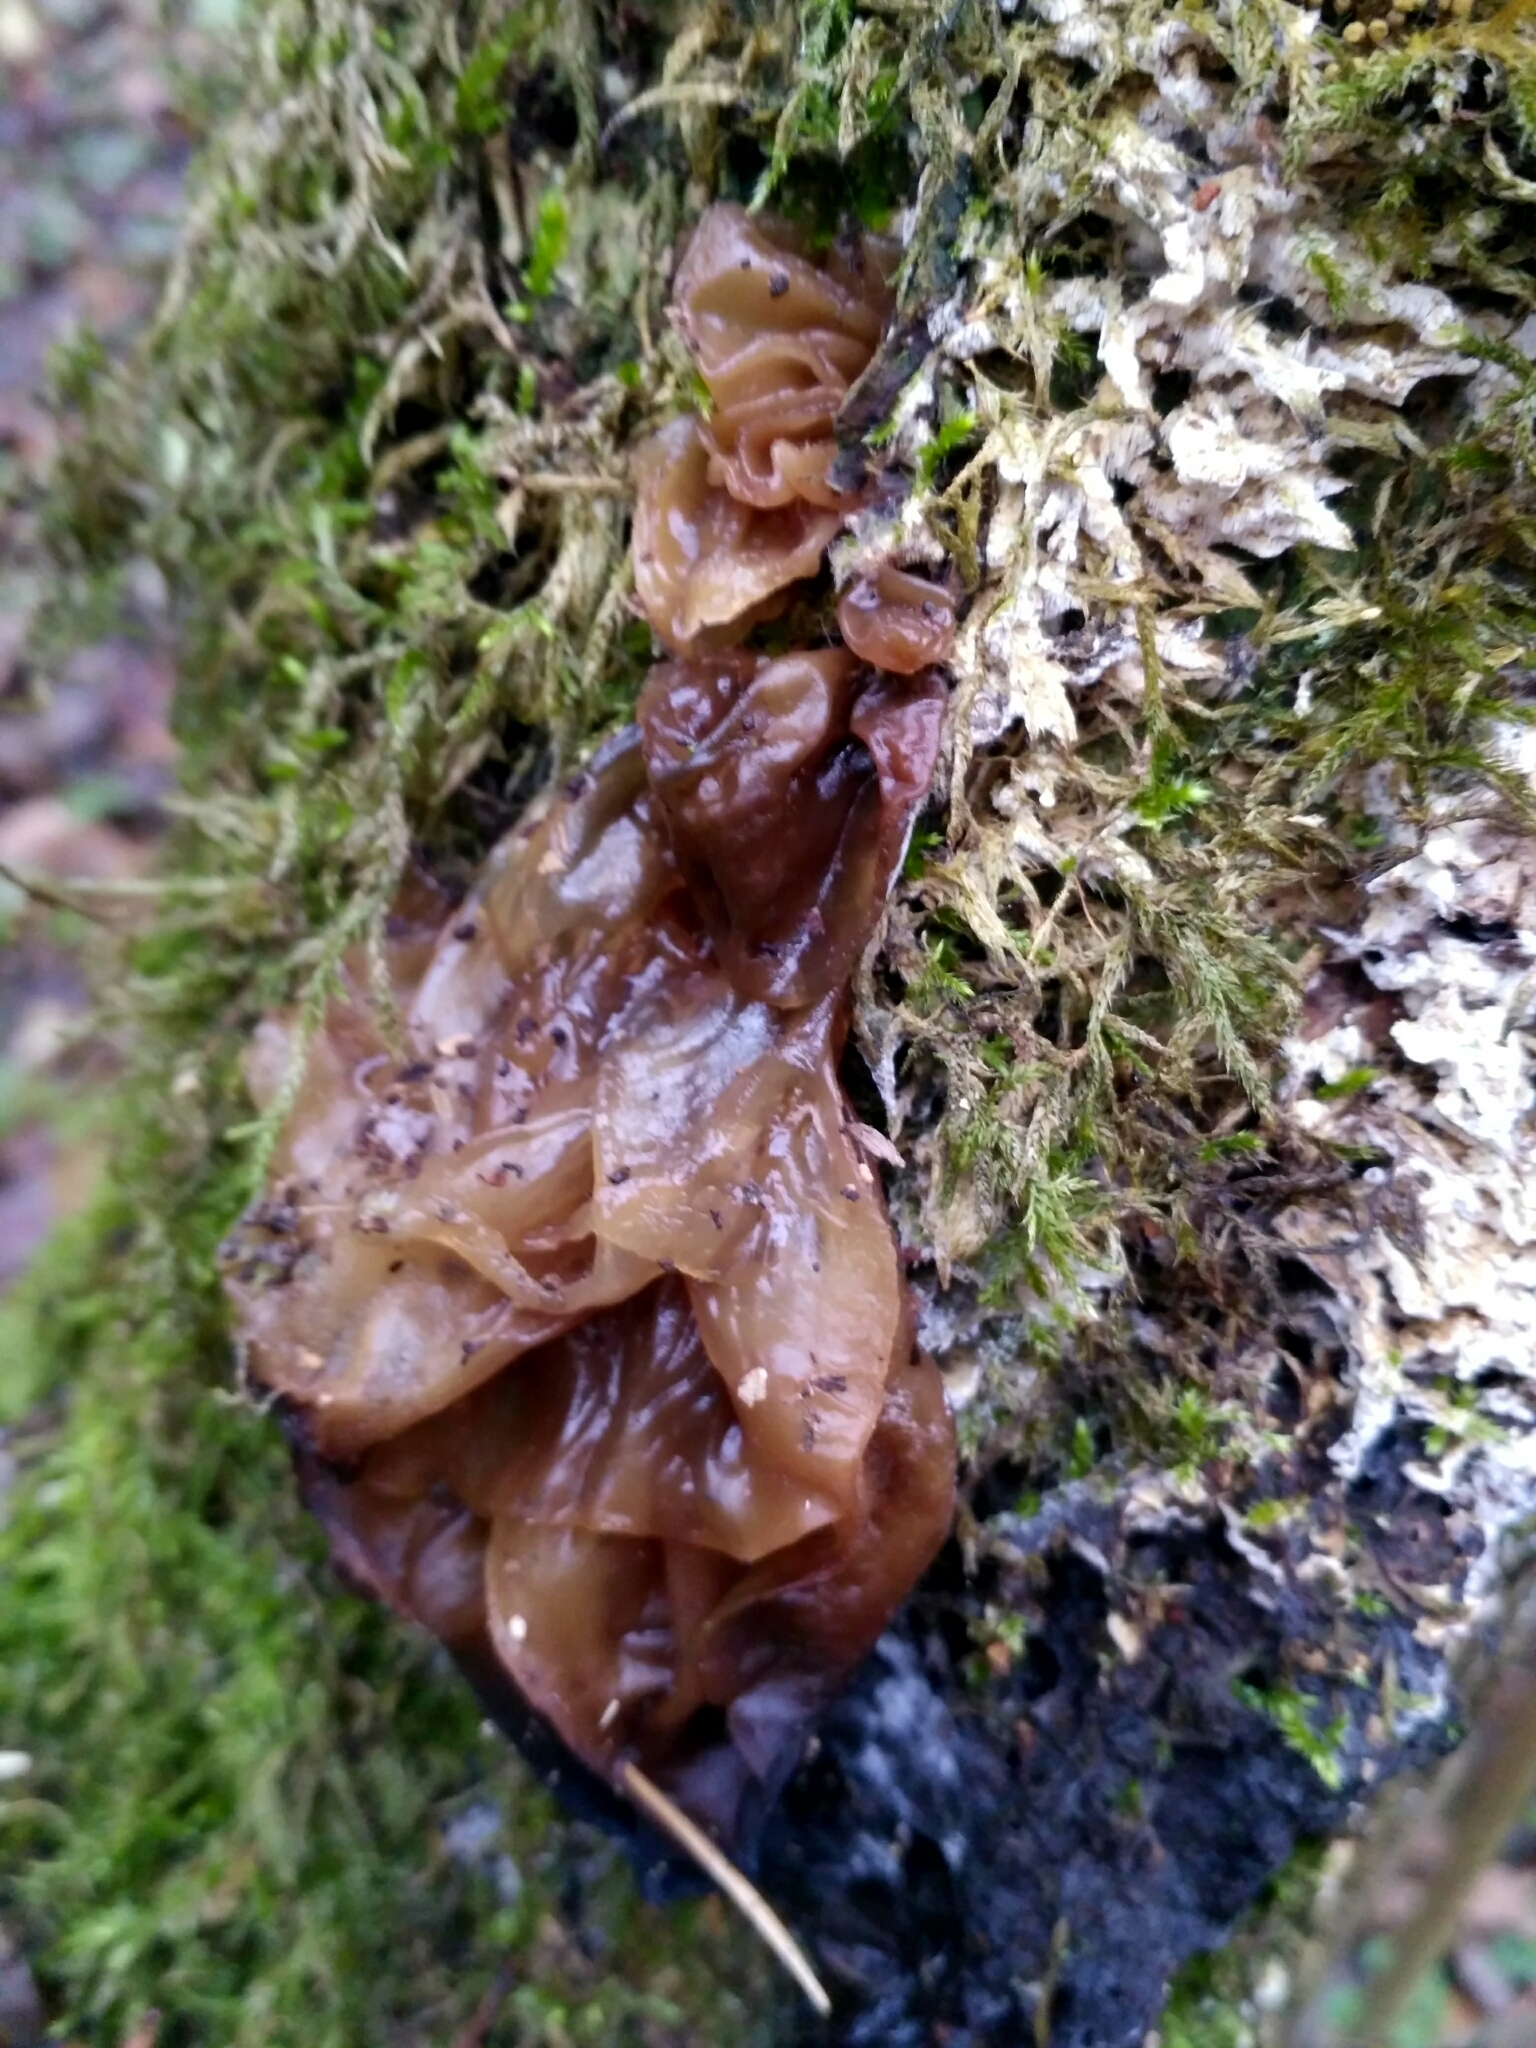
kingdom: Fungi
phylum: Basidiomycota
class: Tremellomycetes
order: Tremellales
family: Tremellaceae
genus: Phaeotremella
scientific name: Phaeotremella foliacea
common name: Leafy brain
